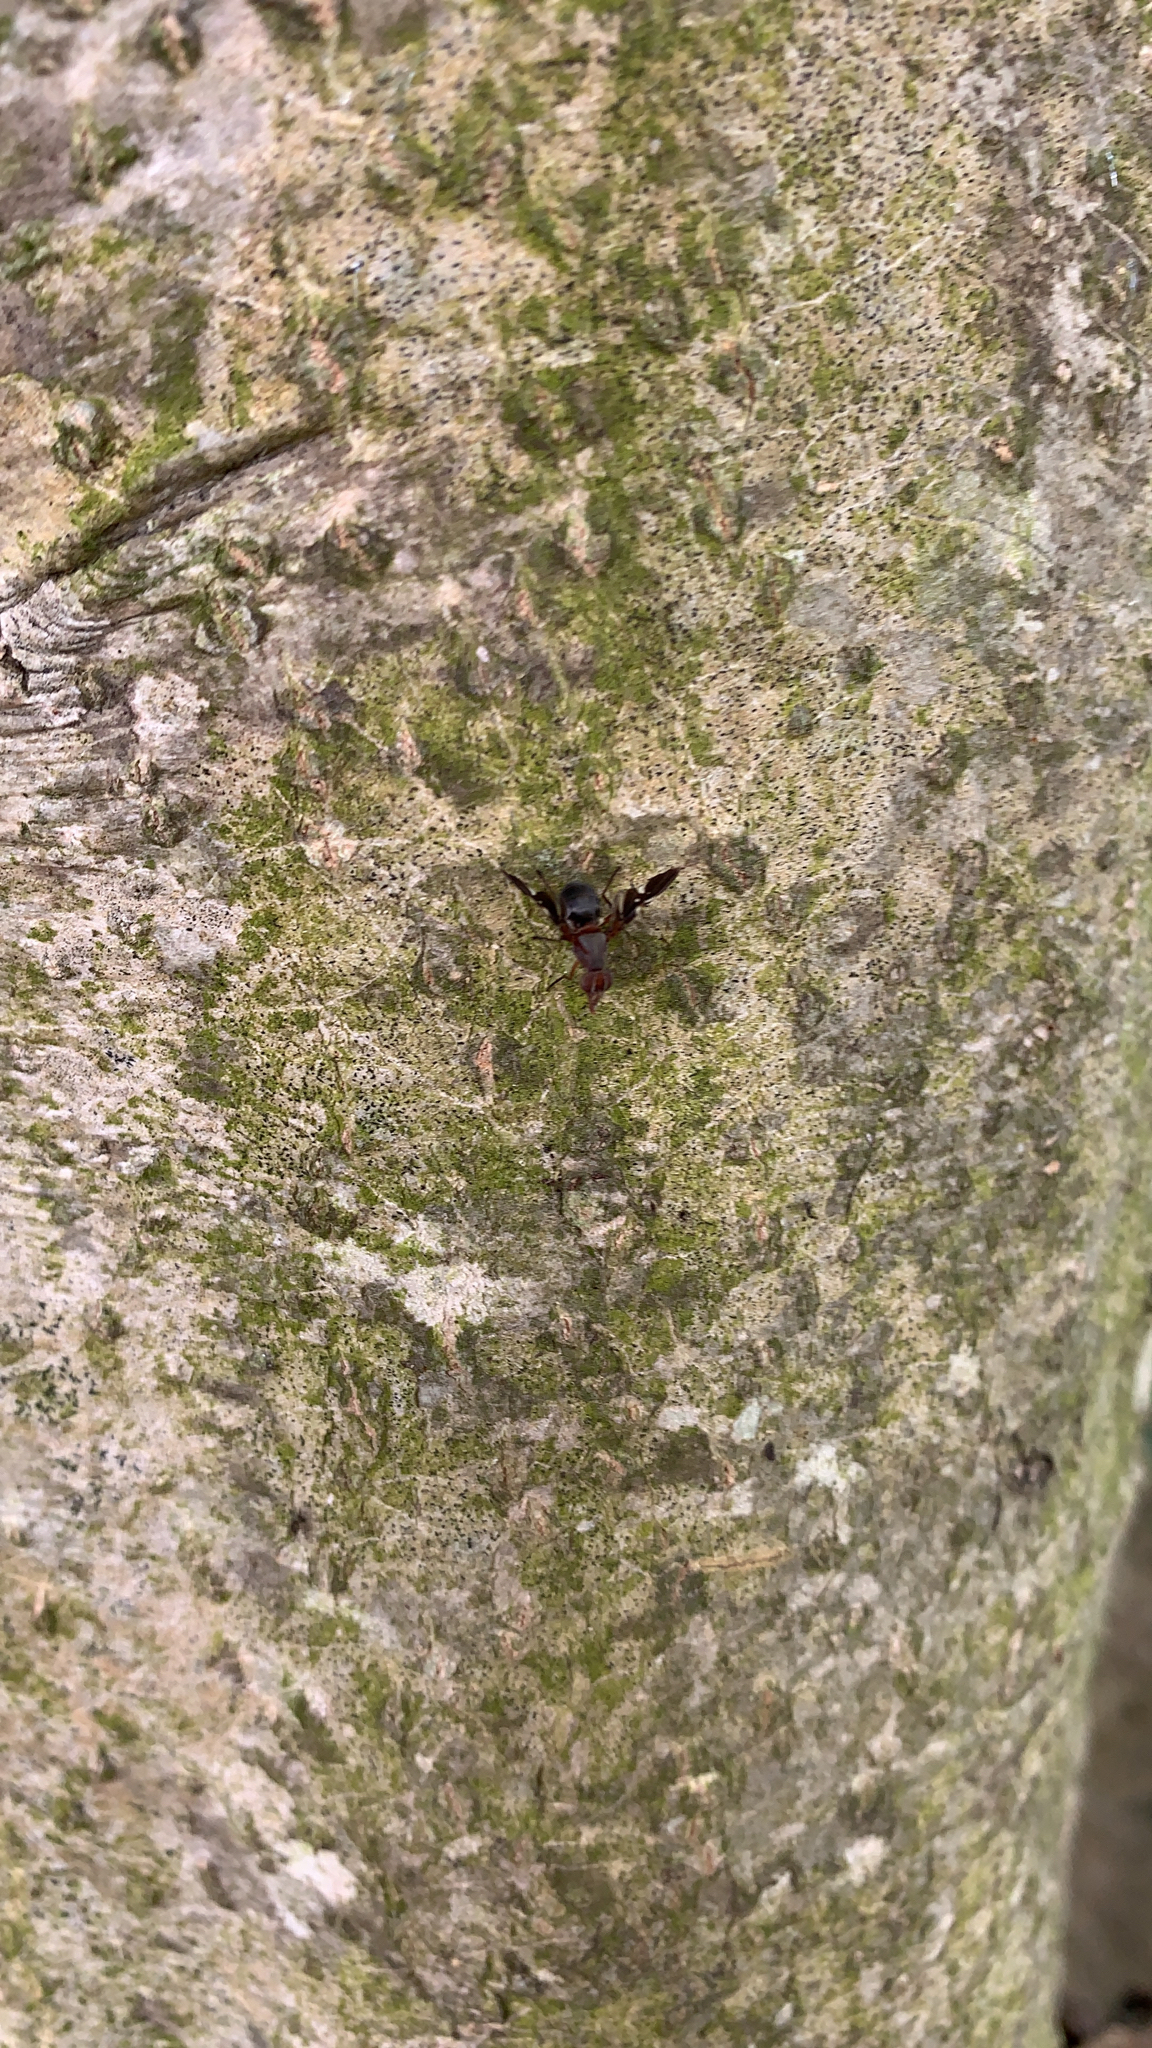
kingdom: Animalia
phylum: Arthropoda
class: Insecta
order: Diptera
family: Ulidiidae
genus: Delphinia
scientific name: Delphinia picta
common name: Common picture-winged fly
